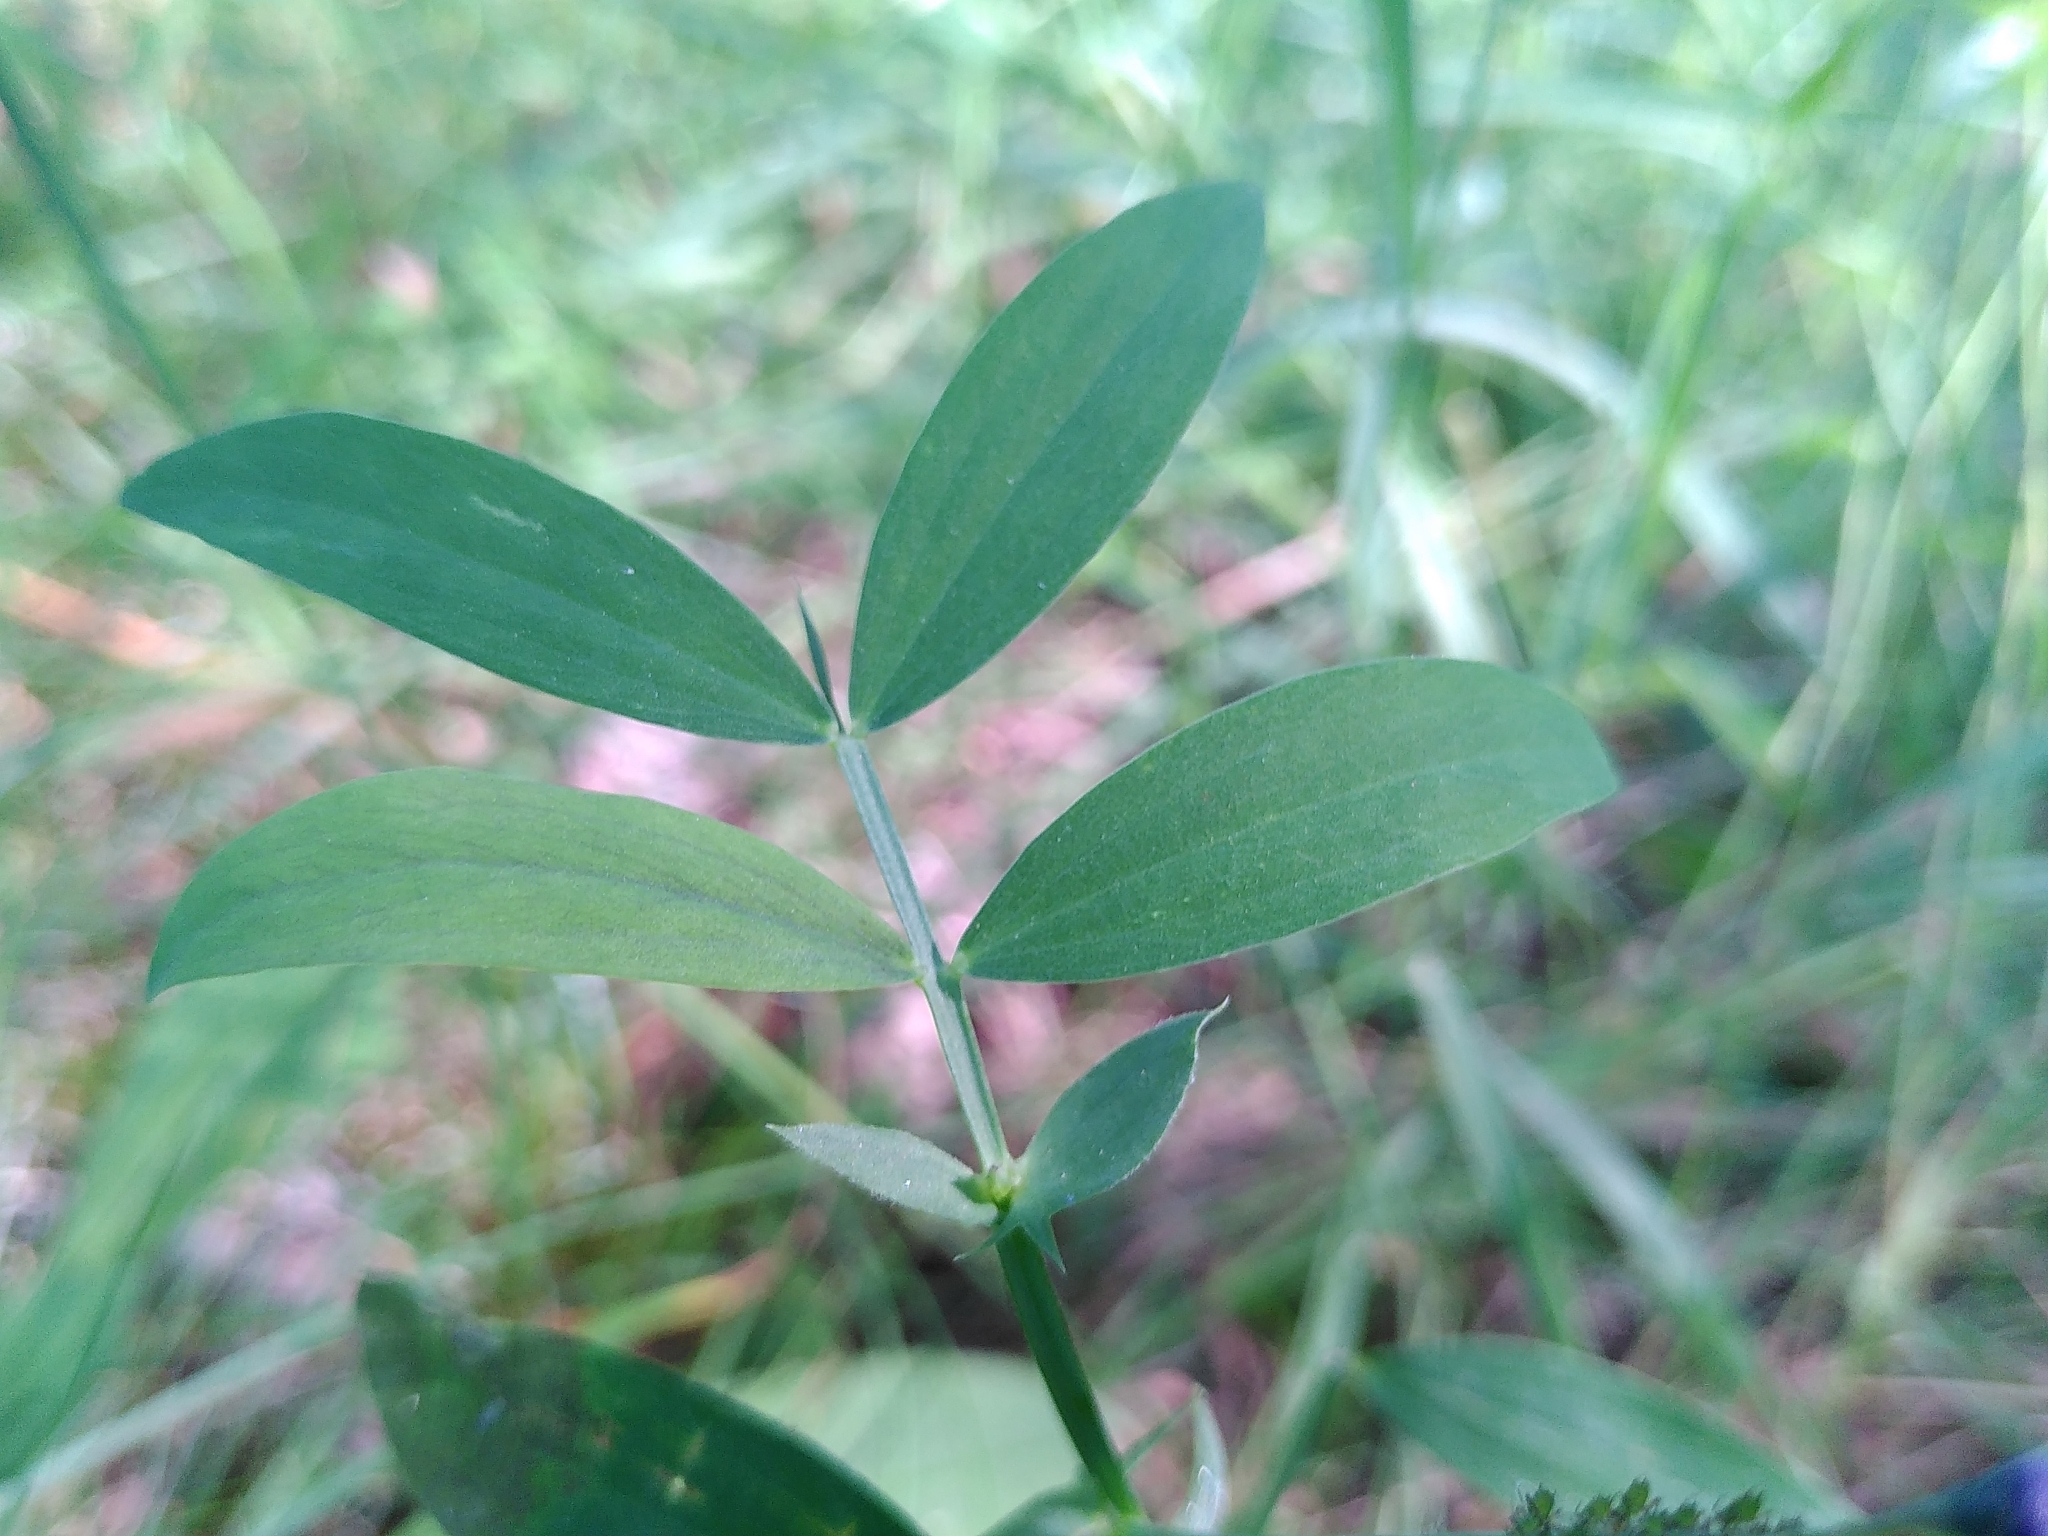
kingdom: Plantae
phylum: Tracheophyta
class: Magnoliopsida
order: Fabales
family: Fabaceae
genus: Lathyrus
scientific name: Lathyrus linifolius
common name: Bitter-vetch
